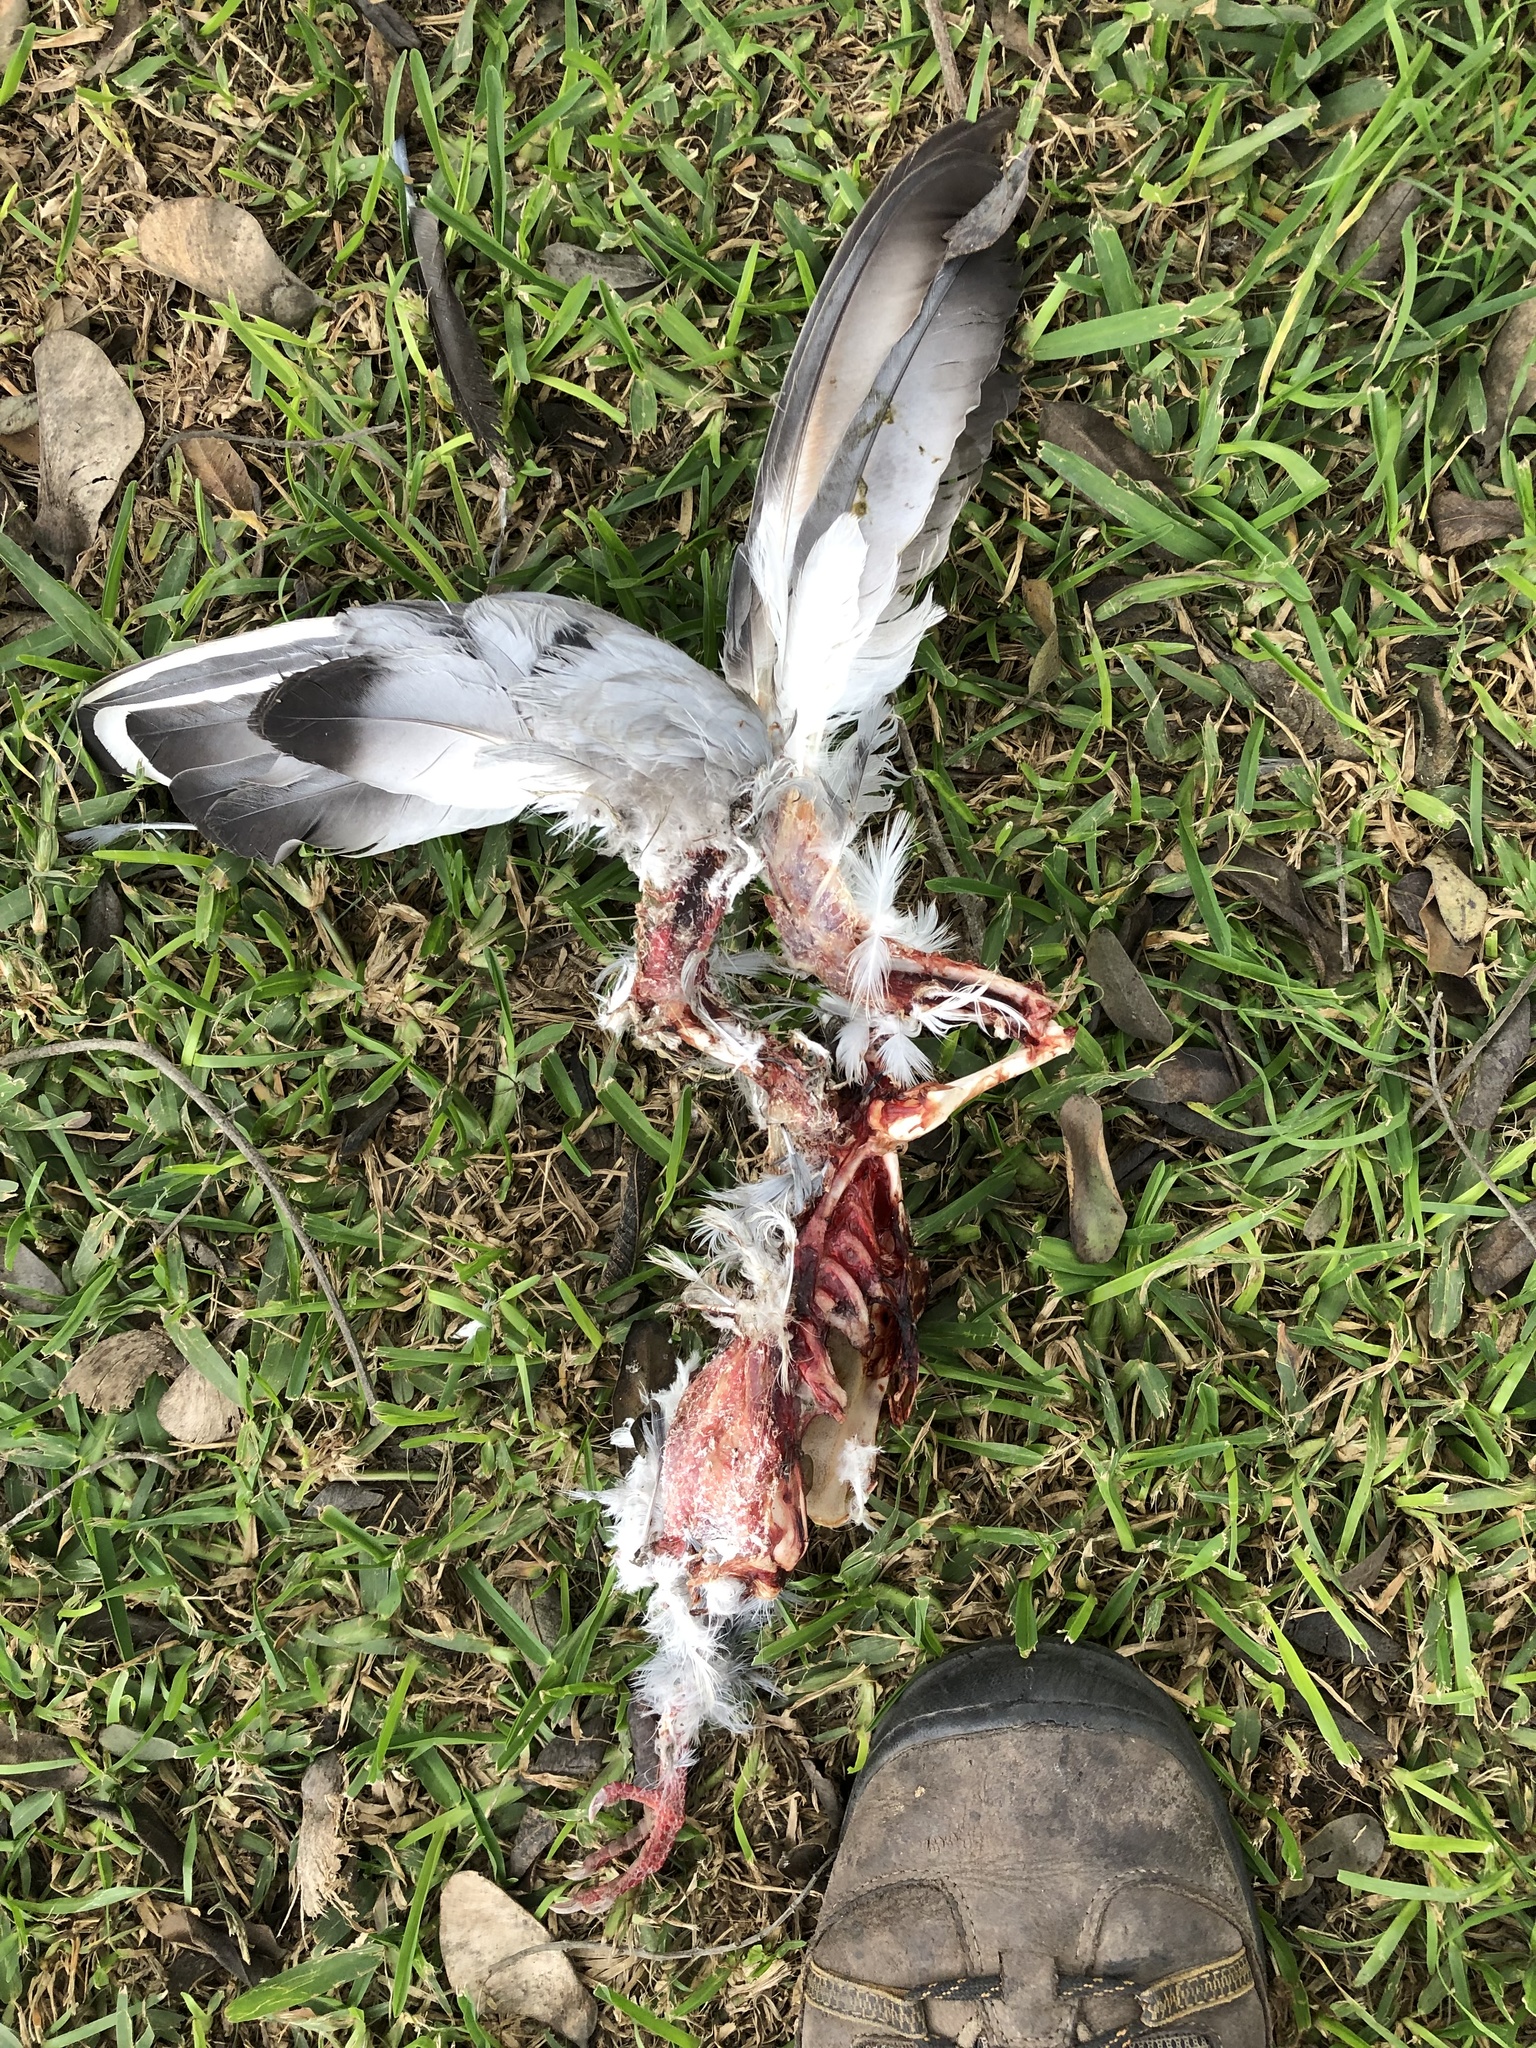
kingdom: Animalia
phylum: Chordata
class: Aves
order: Columbiformes
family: Columbidae
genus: Columba
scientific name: Columba livia
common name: Rock pigeon
